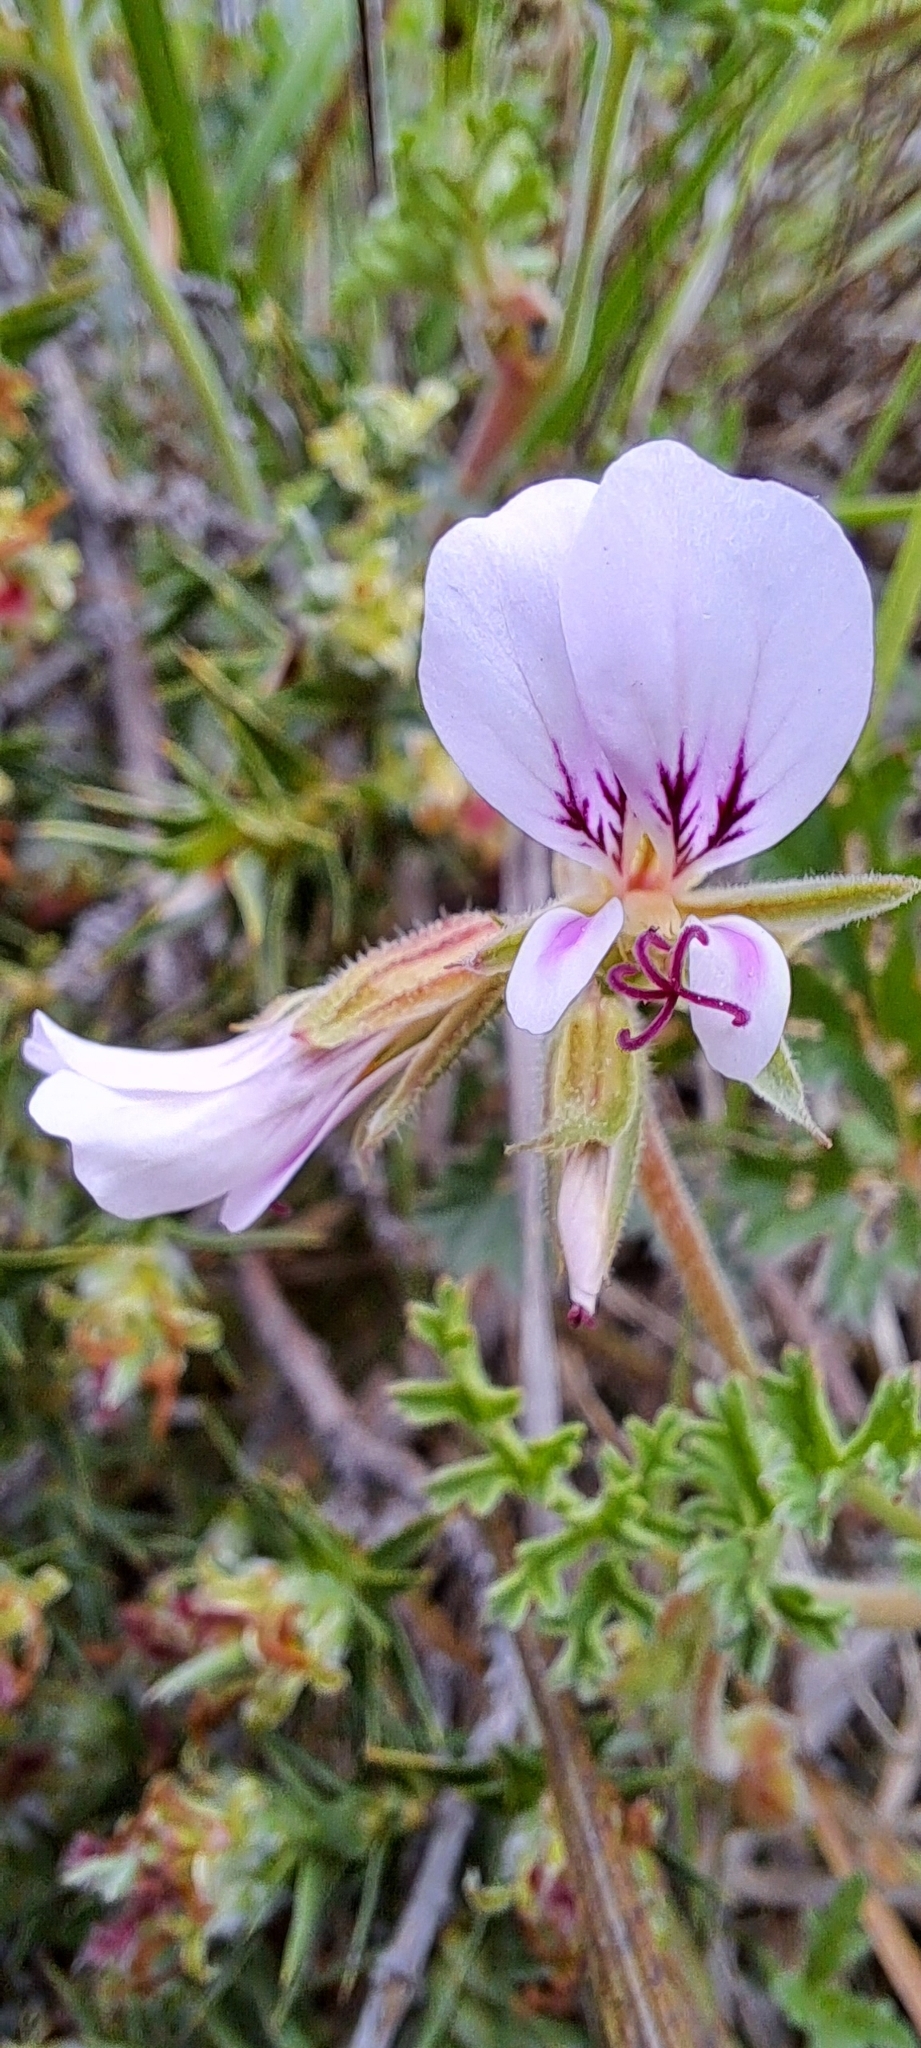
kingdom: Plantae
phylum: Tracheophyta
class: Magnoliopsida
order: Geraniales
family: Geraniaceae
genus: Pelargonium
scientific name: Pelargonium myrrhifolium
